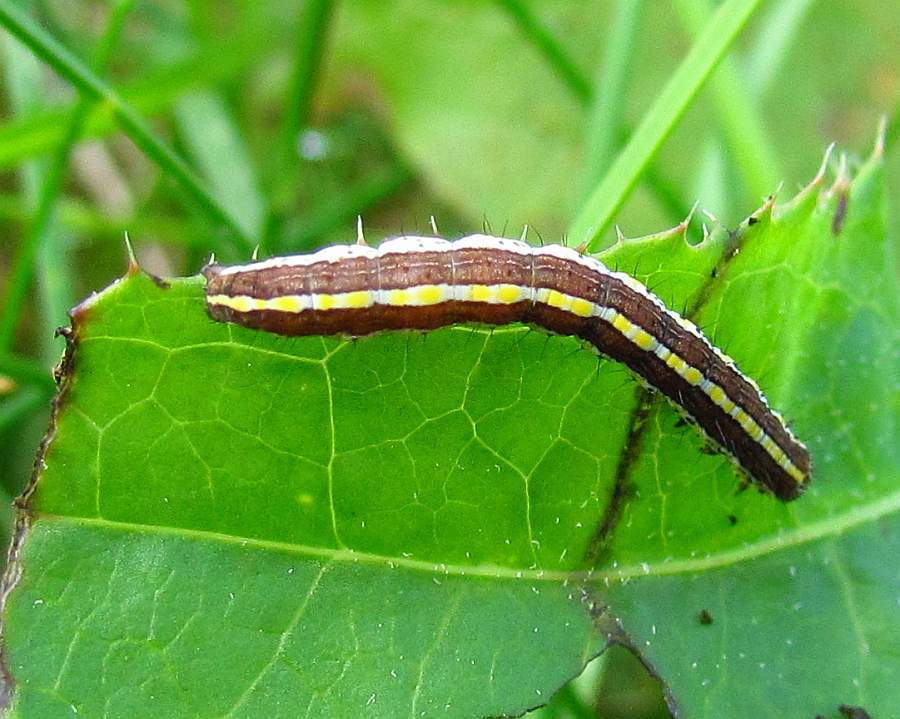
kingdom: Animalia
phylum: Arthropoda
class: Insecta
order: Lepidoptera
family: Noctuidae
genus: Trichordestra
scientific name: Trichordestra legitima
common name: Striped garden caterpillar
